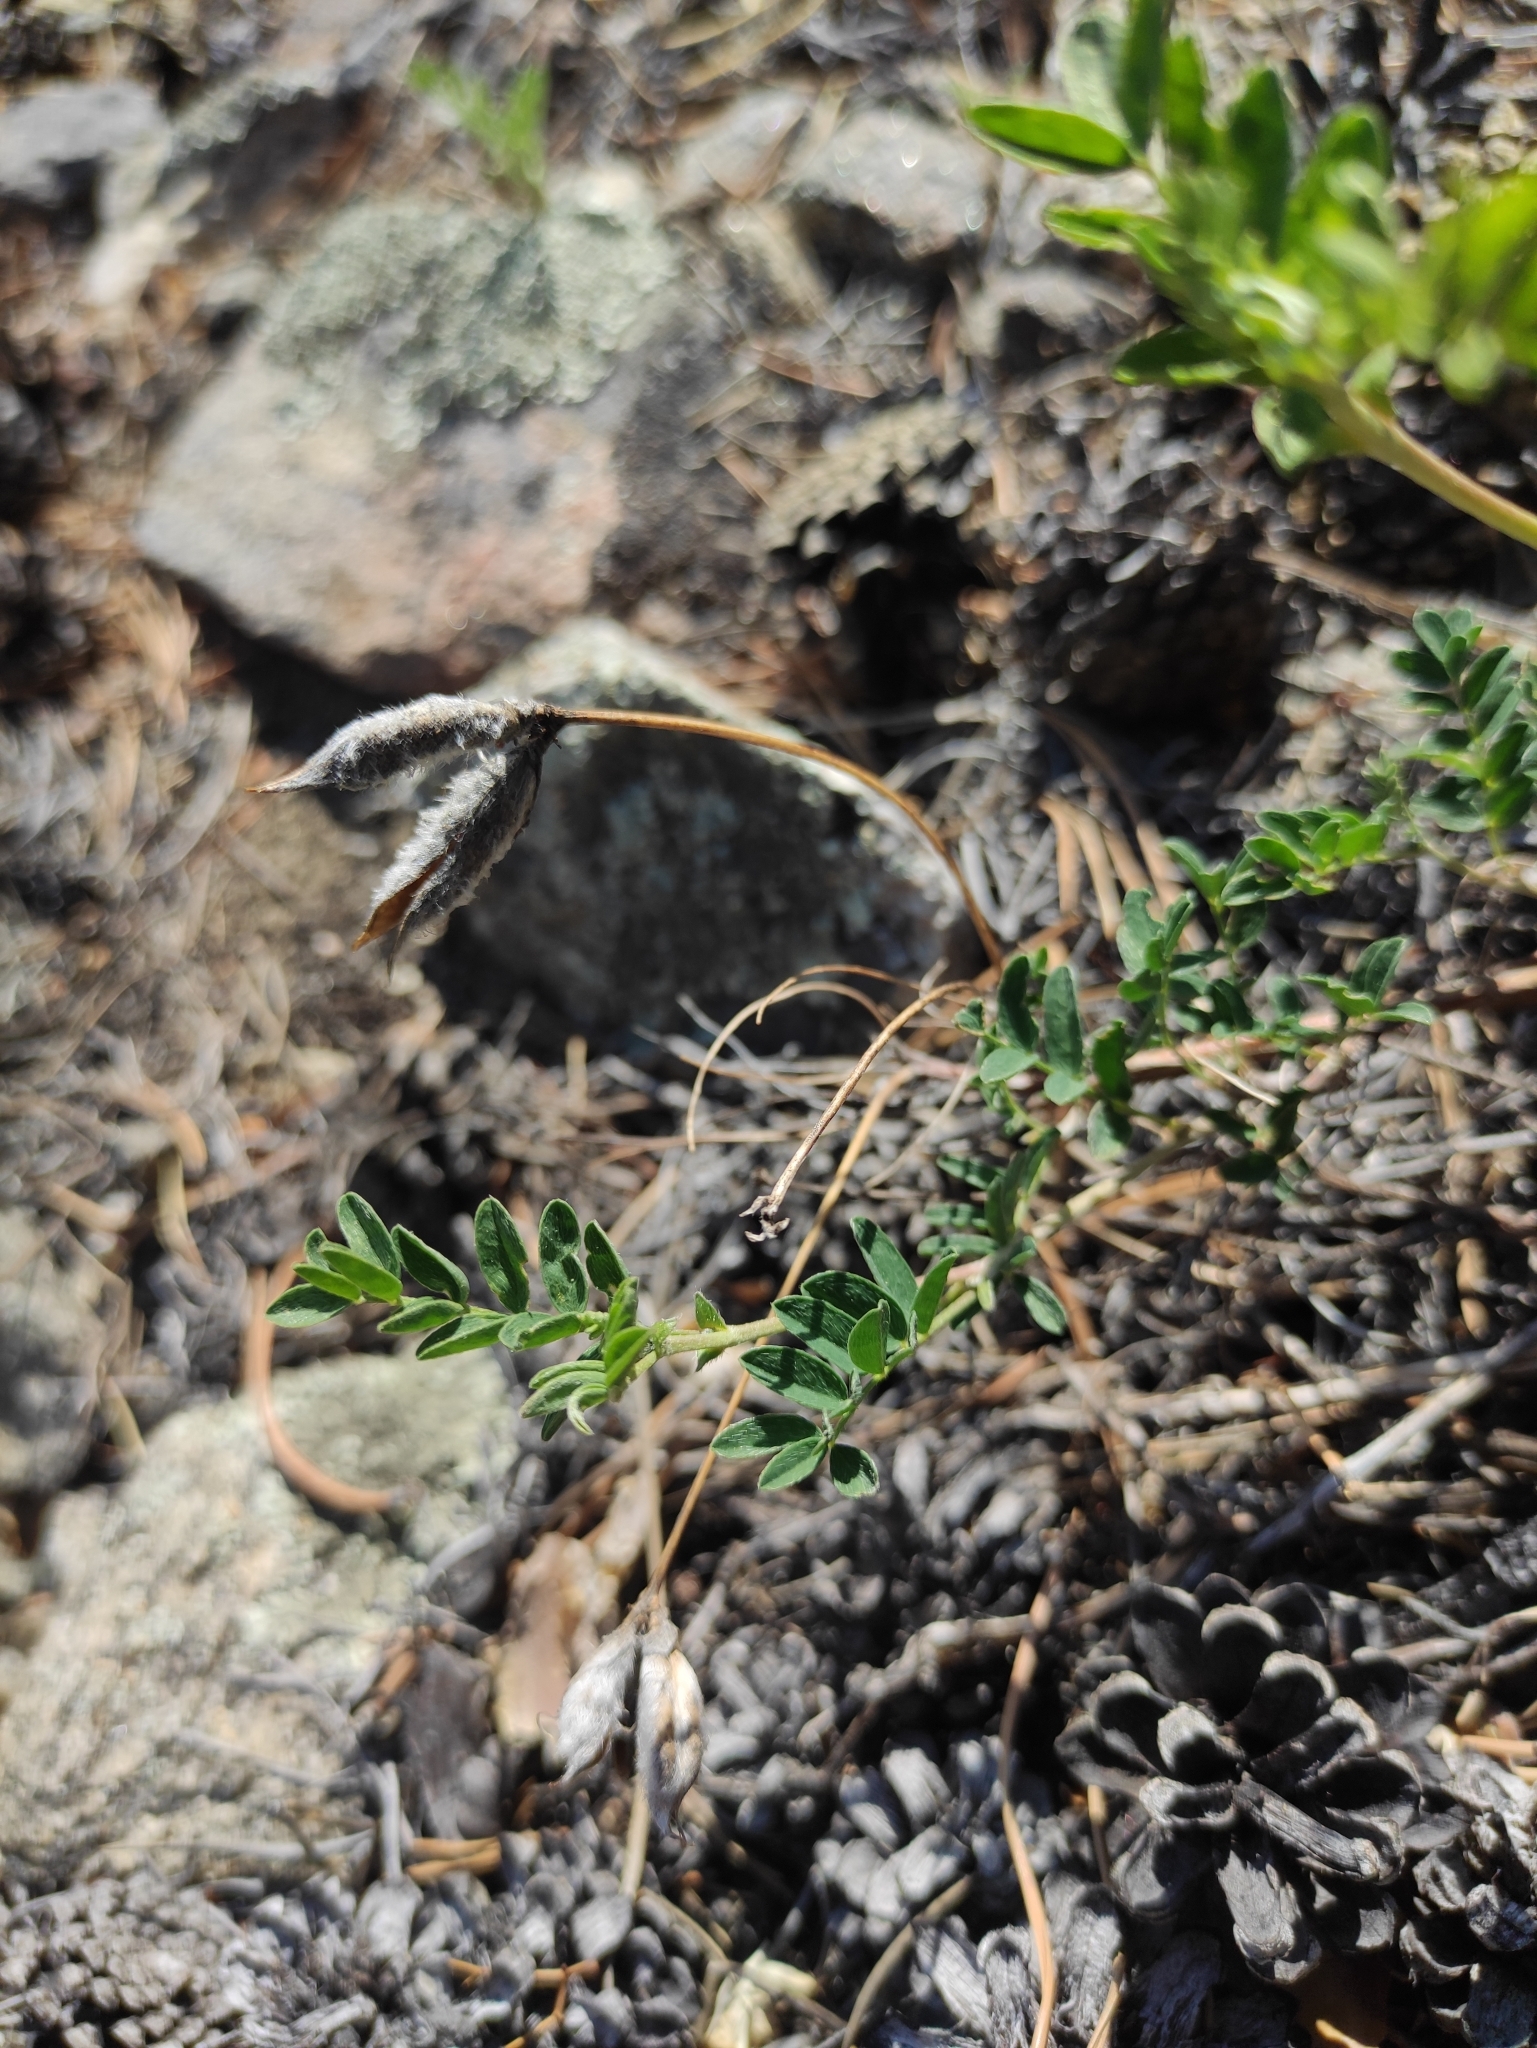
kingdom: Plantae
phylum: Tracheophyta
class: Magnoliopsida
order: Fabales
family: Fabaceae
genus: Astragalus
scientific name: Astragalus syriacus
